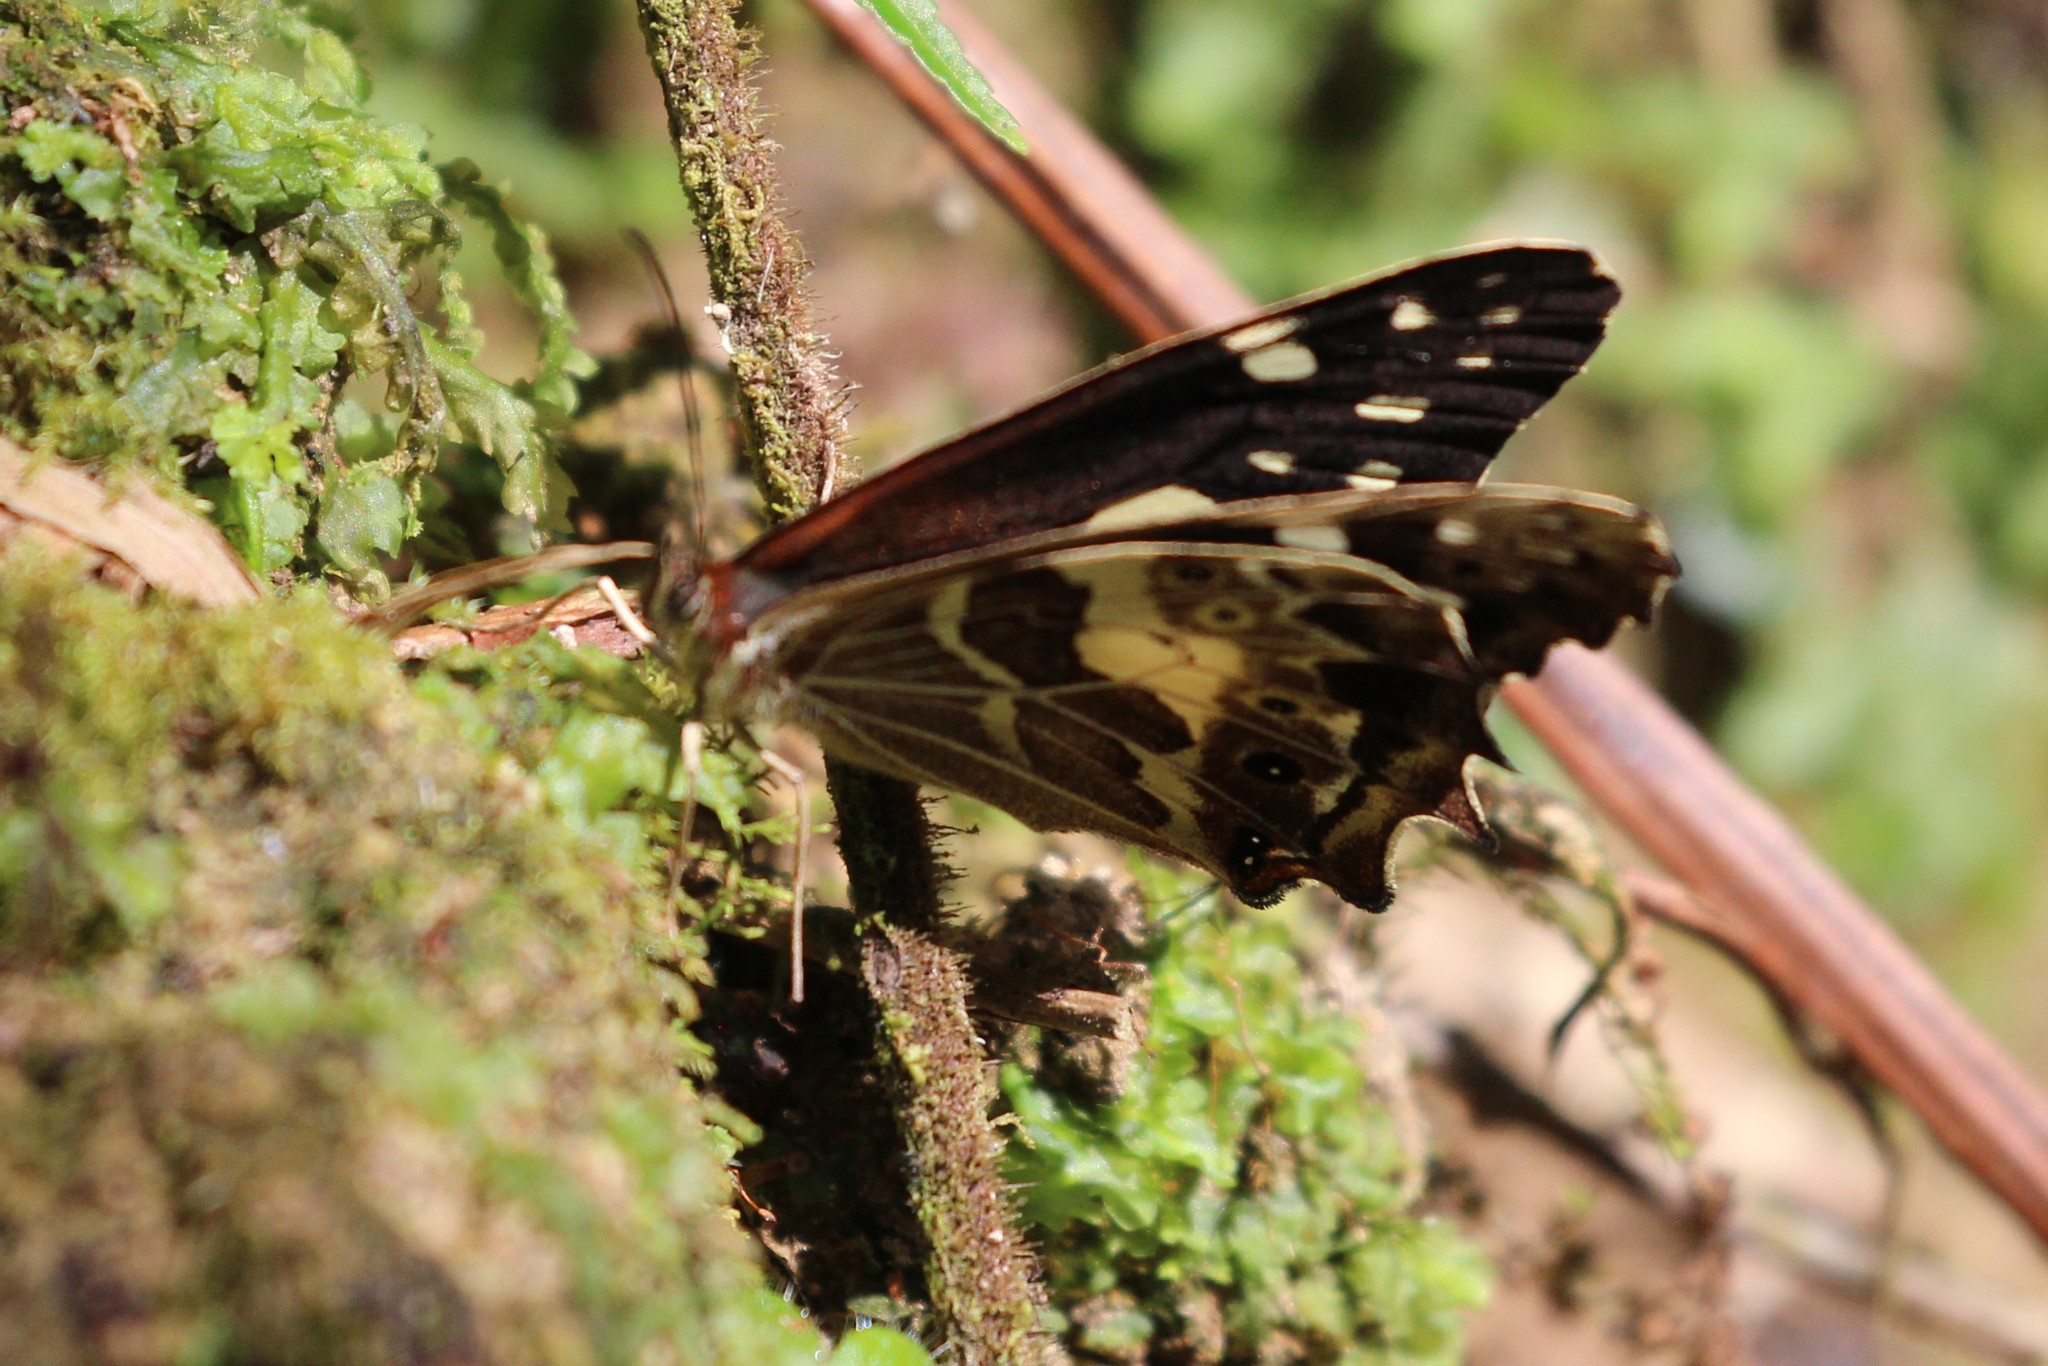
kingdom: Animalia
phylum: Arthropoda
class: Insecta
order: Lepidoptera
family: Nymphalidae
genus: Dioriste
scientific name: Dioriste tauropolis
